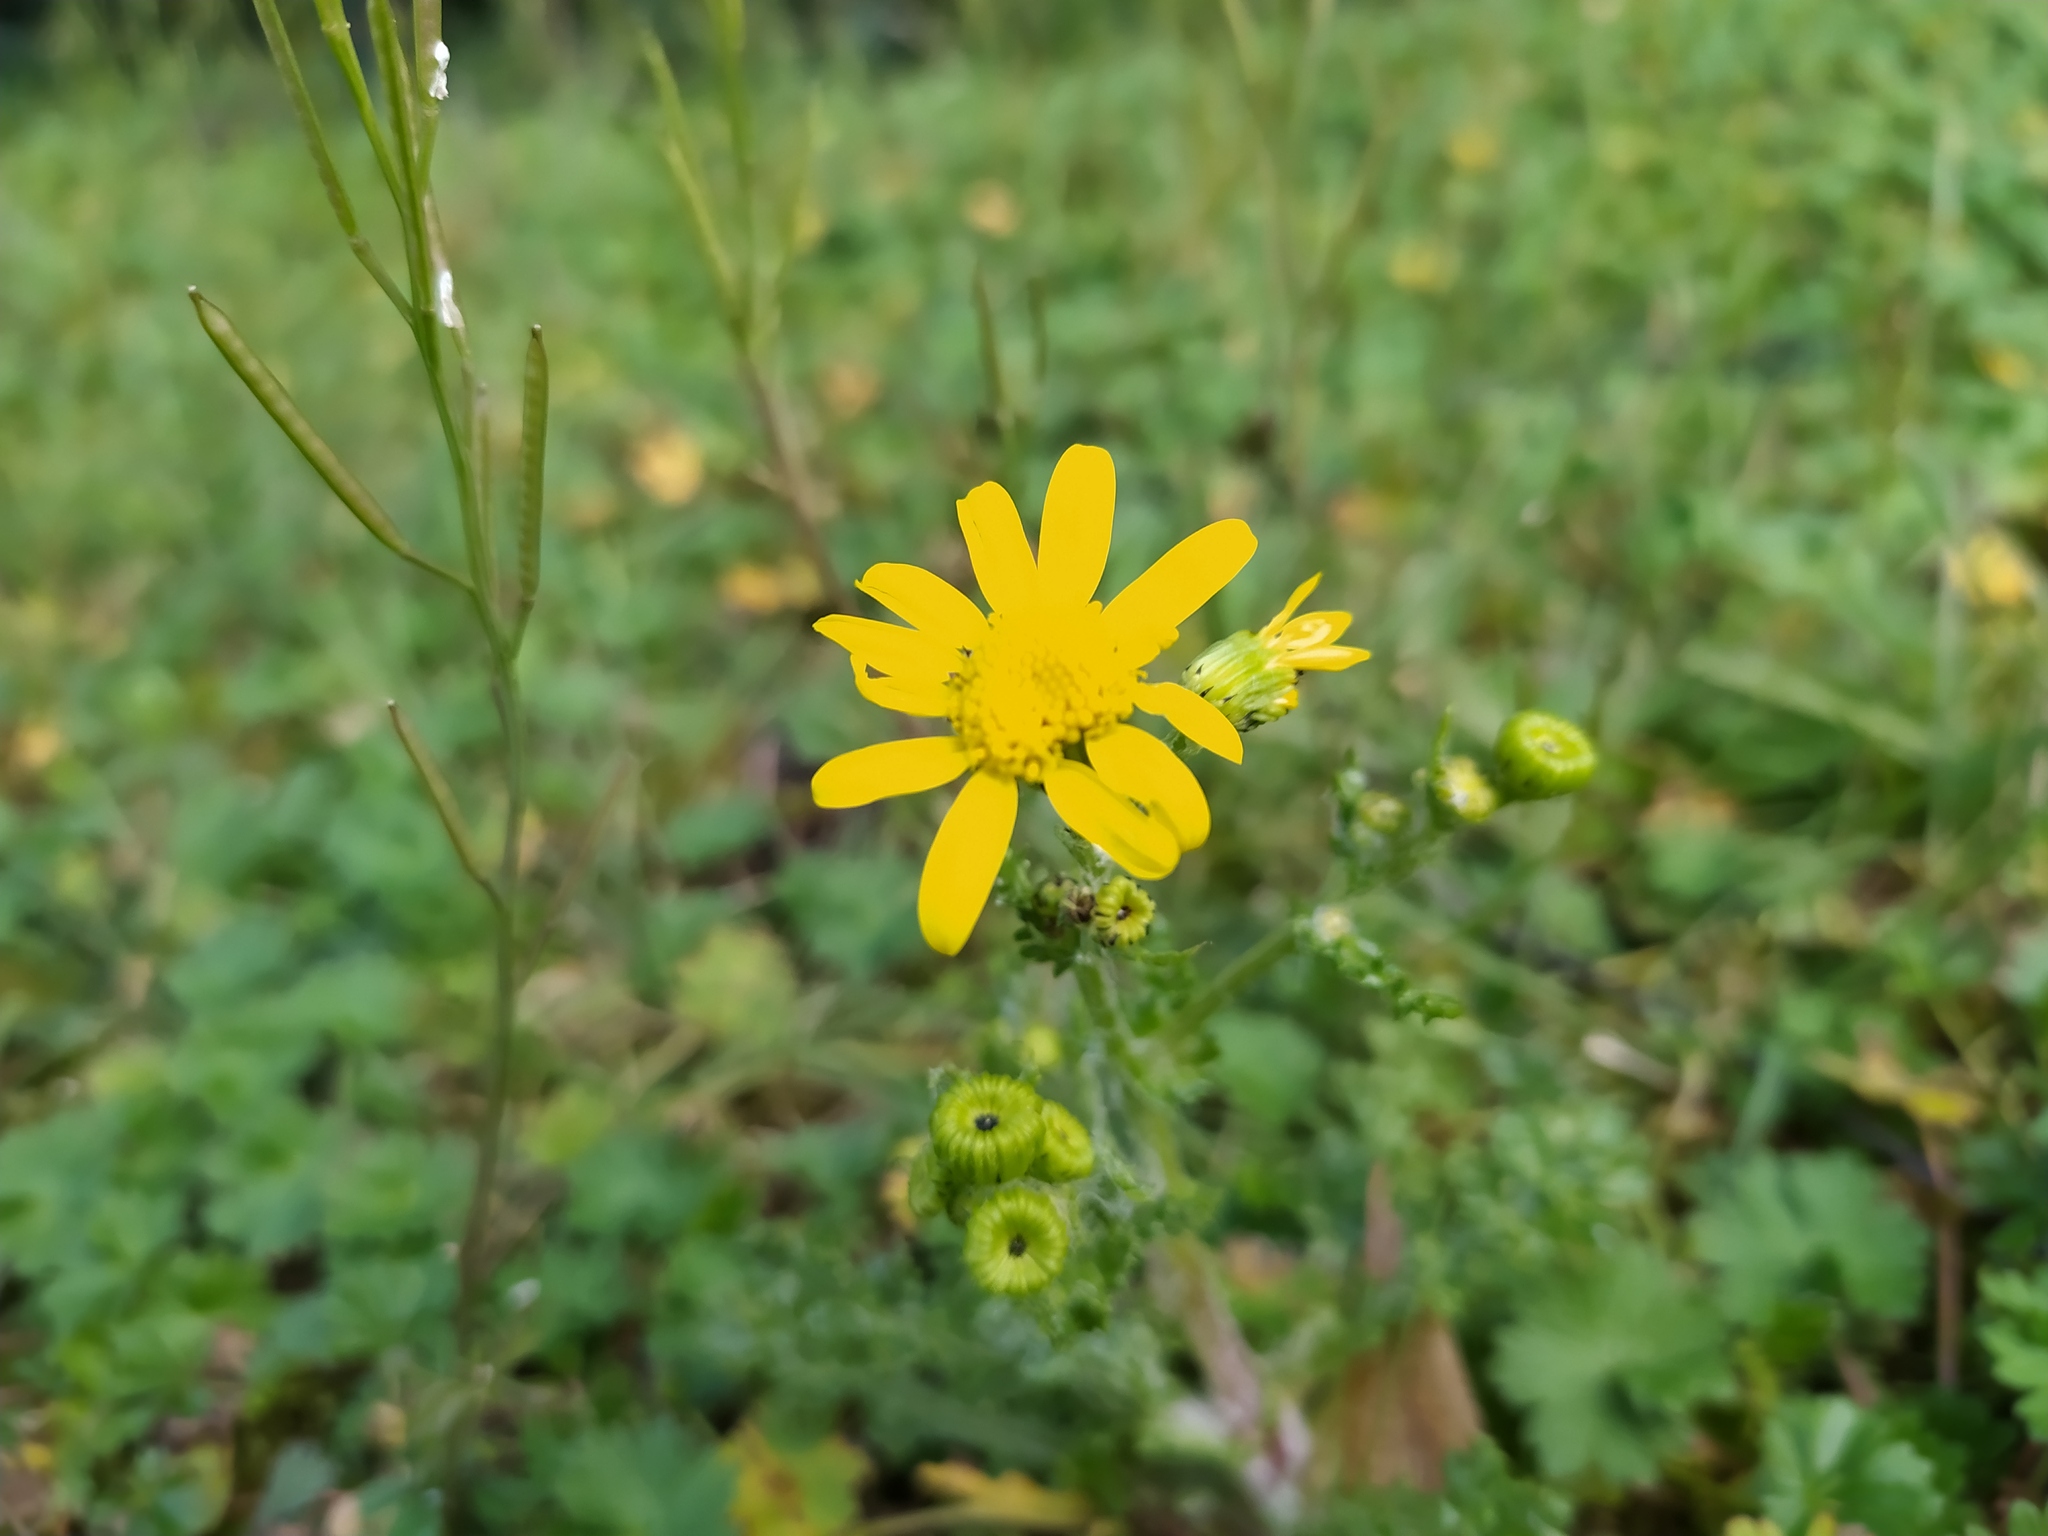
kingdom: Plantae
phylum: Tracheophyta
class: Magnoliopsida
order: Asterales
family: Asteraceae
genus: Senecio
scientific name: Senecio vernalis
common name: Eastern groundsel
